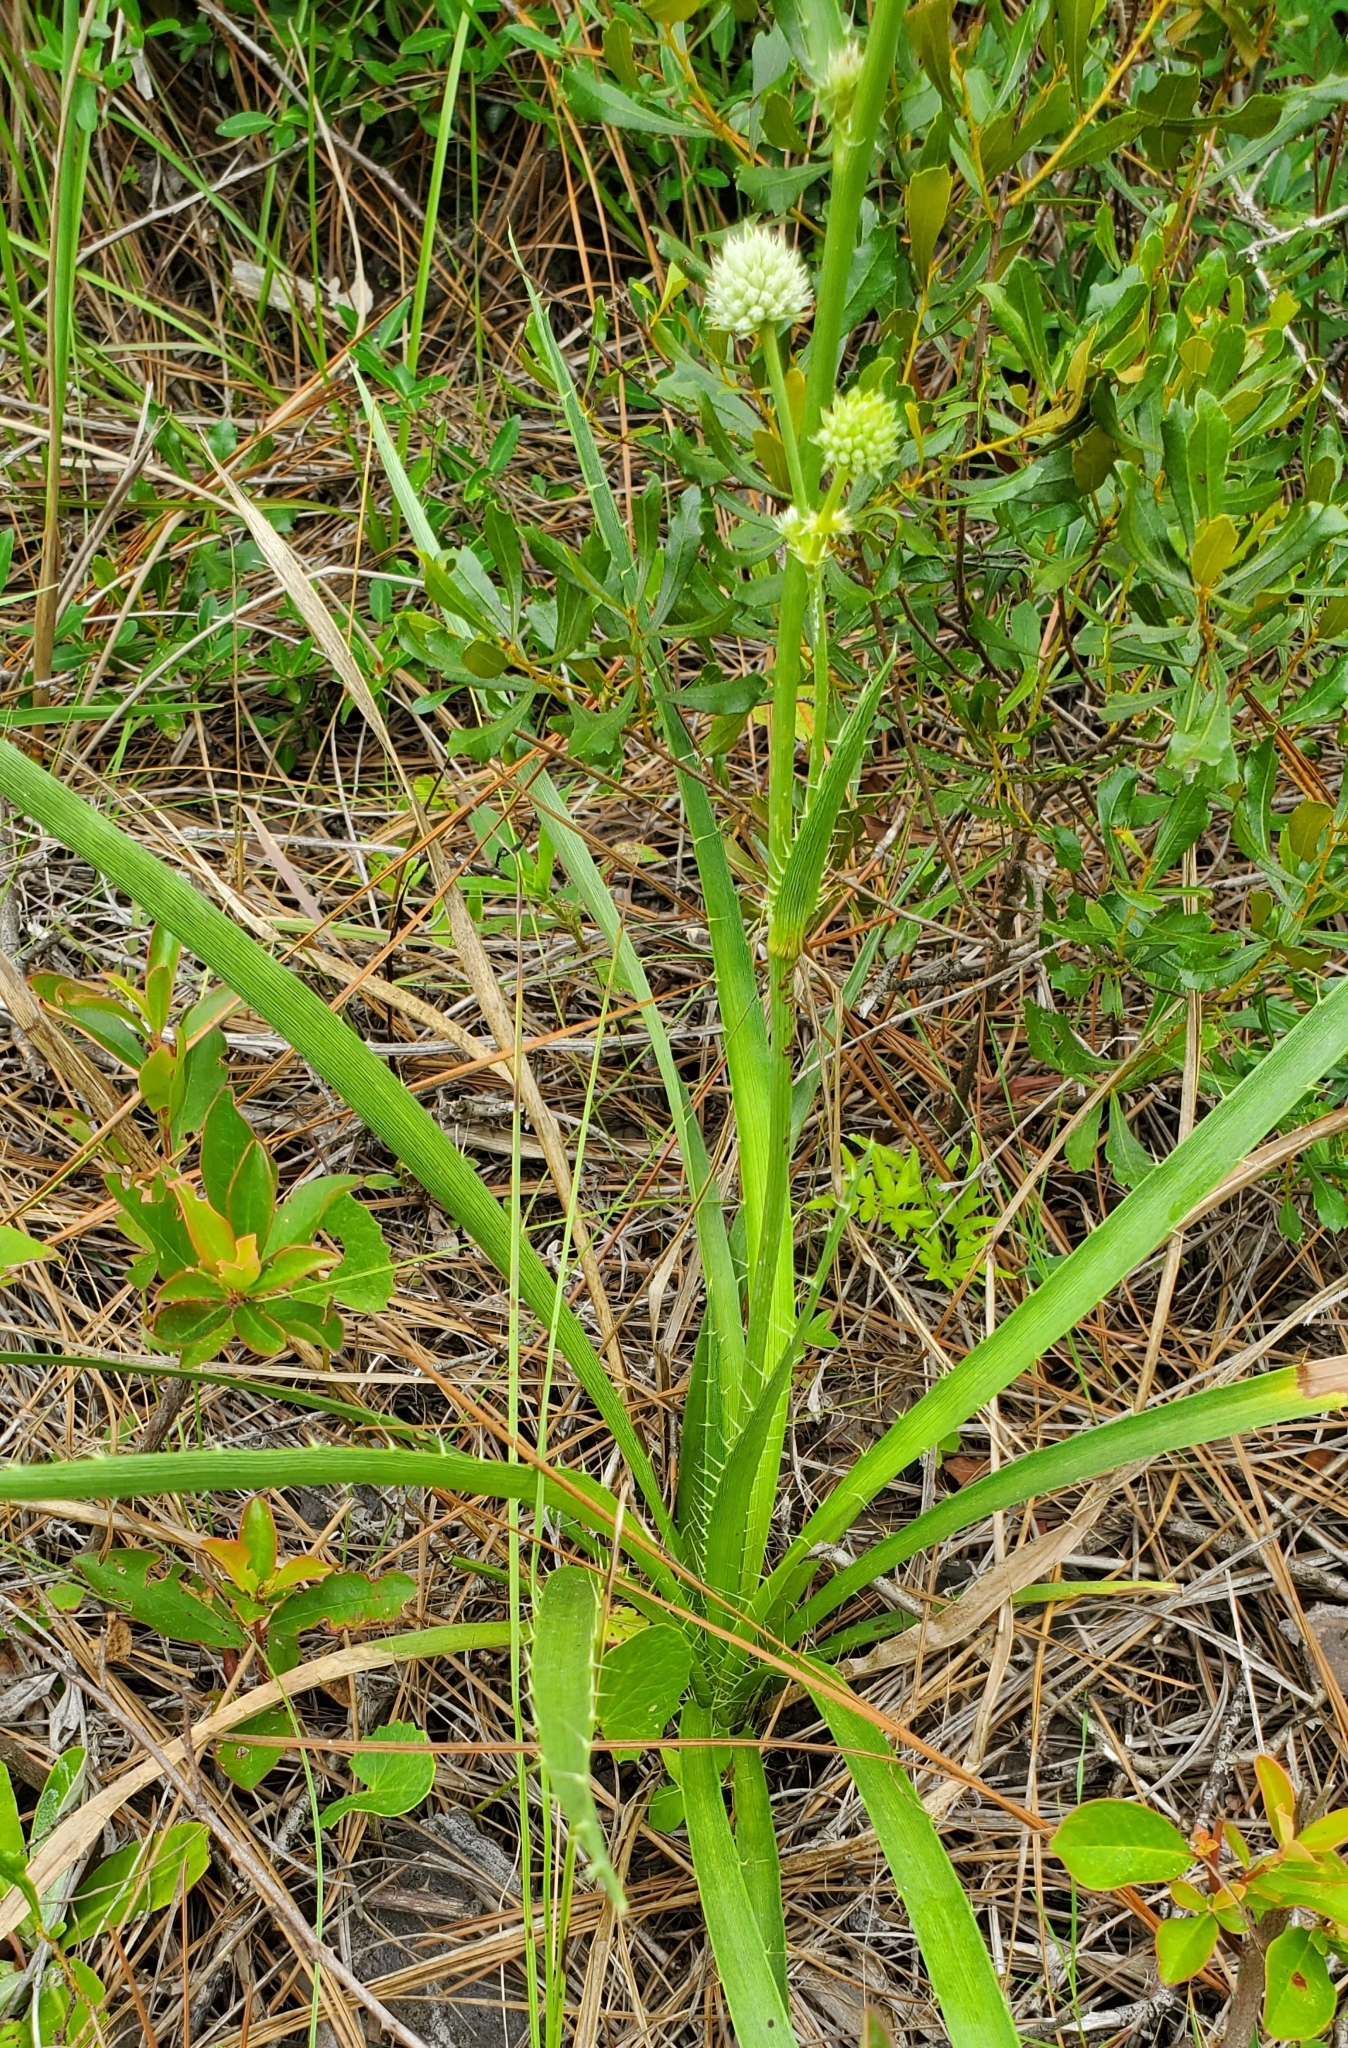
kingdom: Plantae
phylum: Tracheophyta
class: Magnoliopsida
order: Apiales
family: Apiaceae
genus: Eryngium
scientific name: Eryngium yuccifolium
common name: Button eryngo
